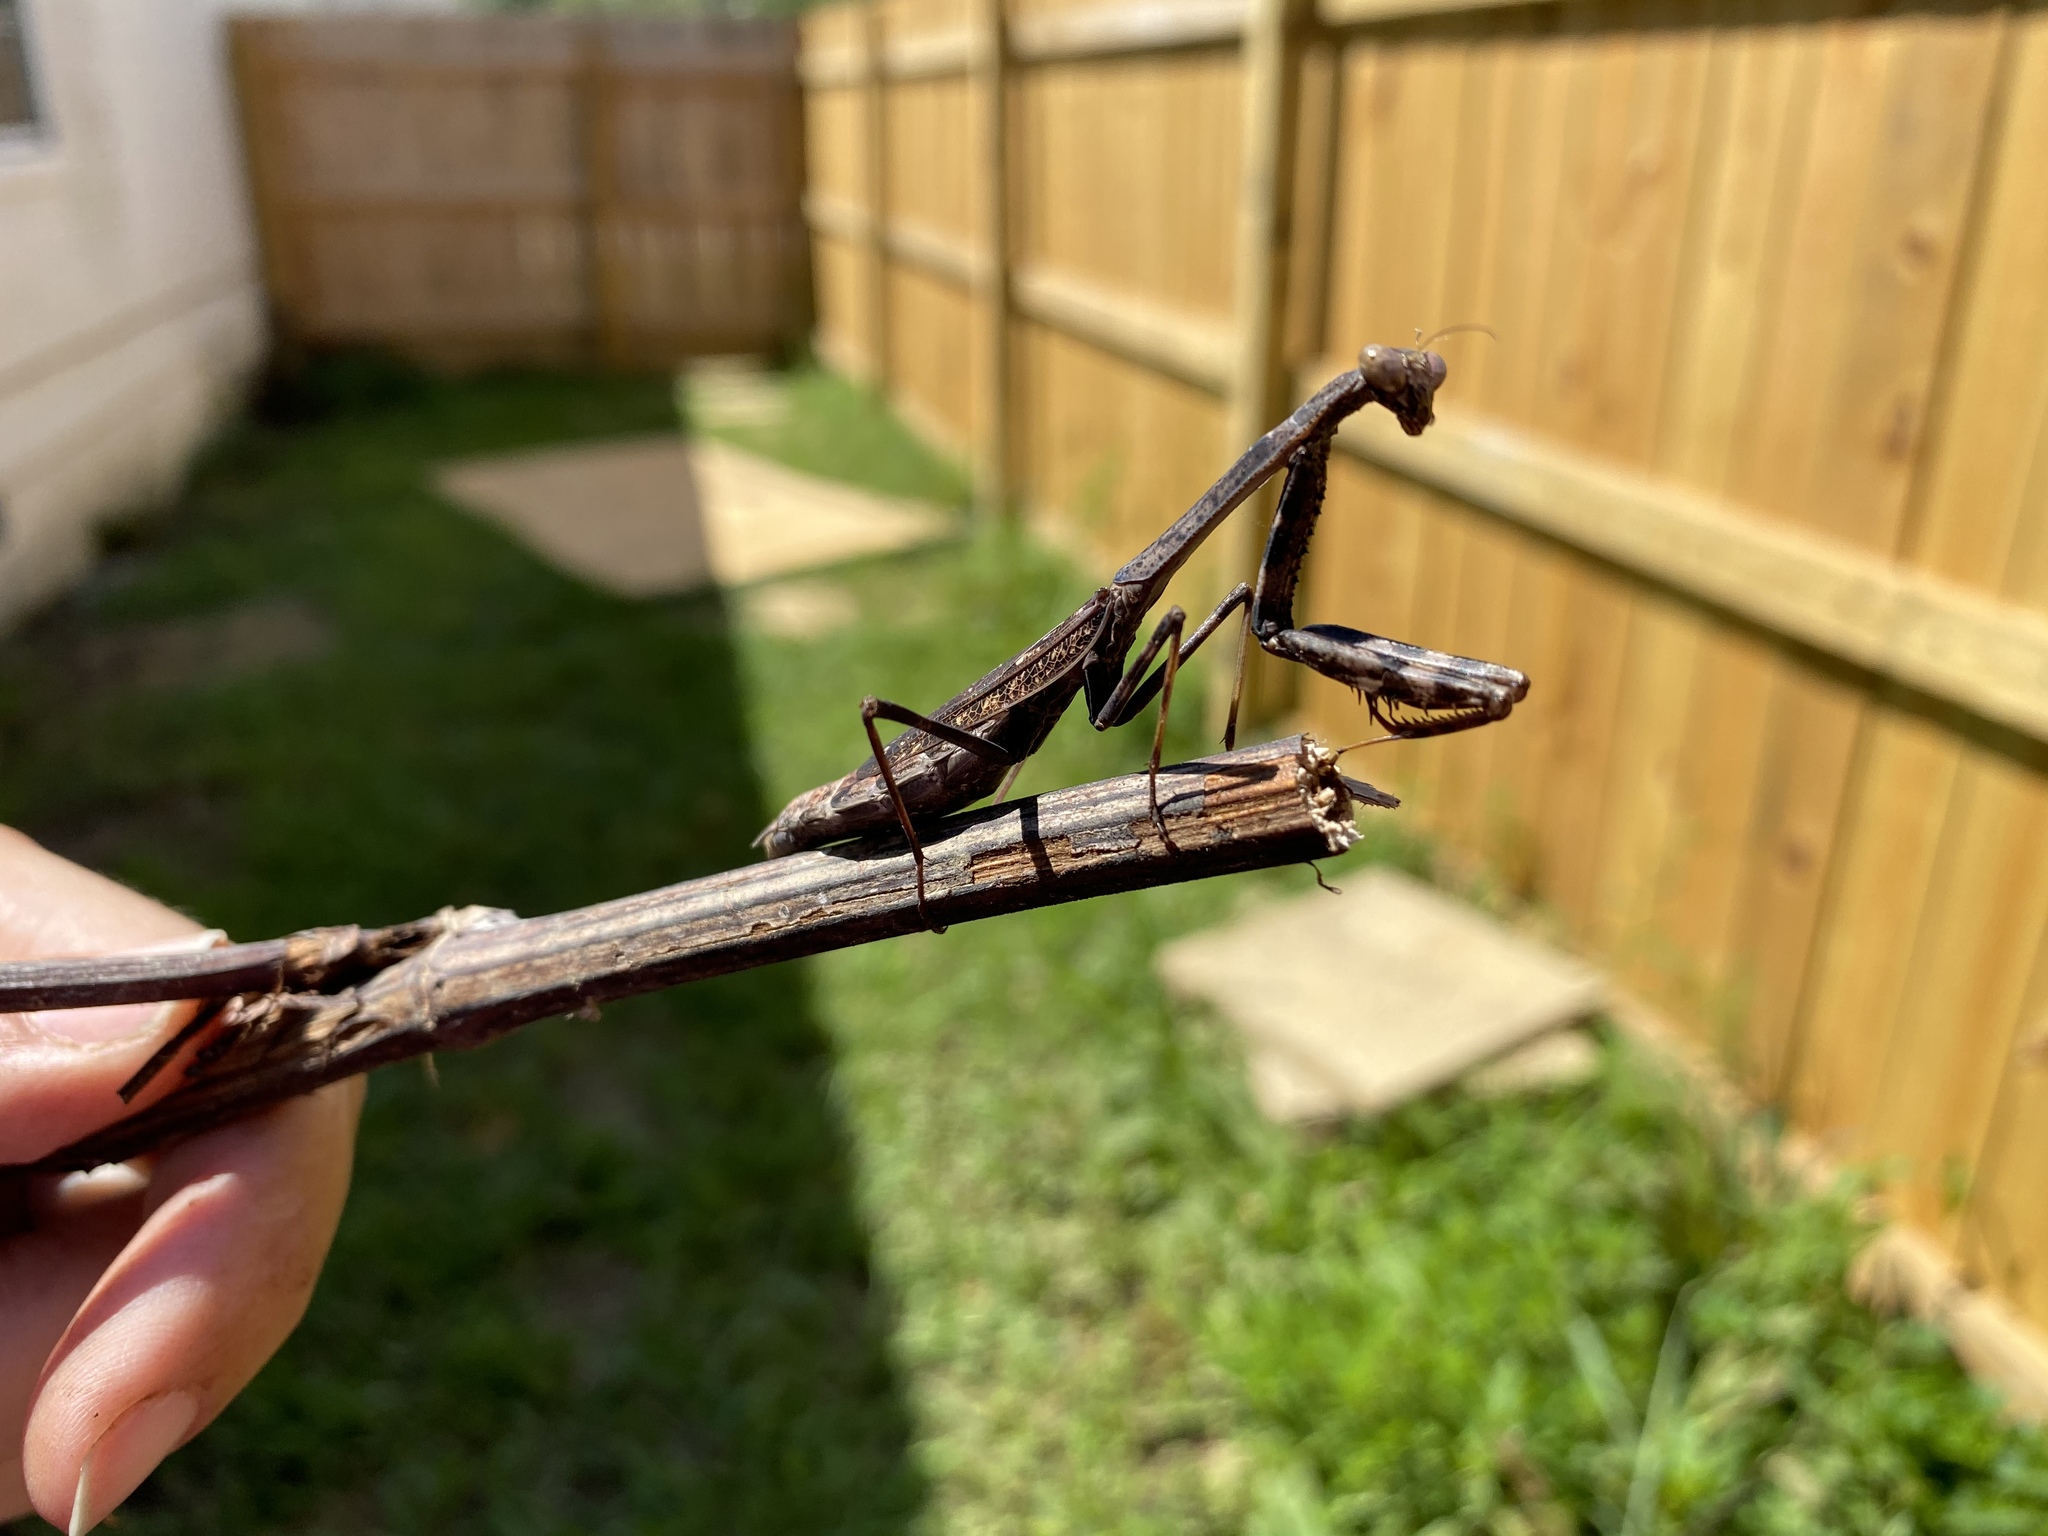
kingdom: Animalia
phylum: Arthropoda
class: Insecta
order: Mantodea
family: Mantidae
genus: Stagmomantis
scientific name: Stagmomantis carolina
